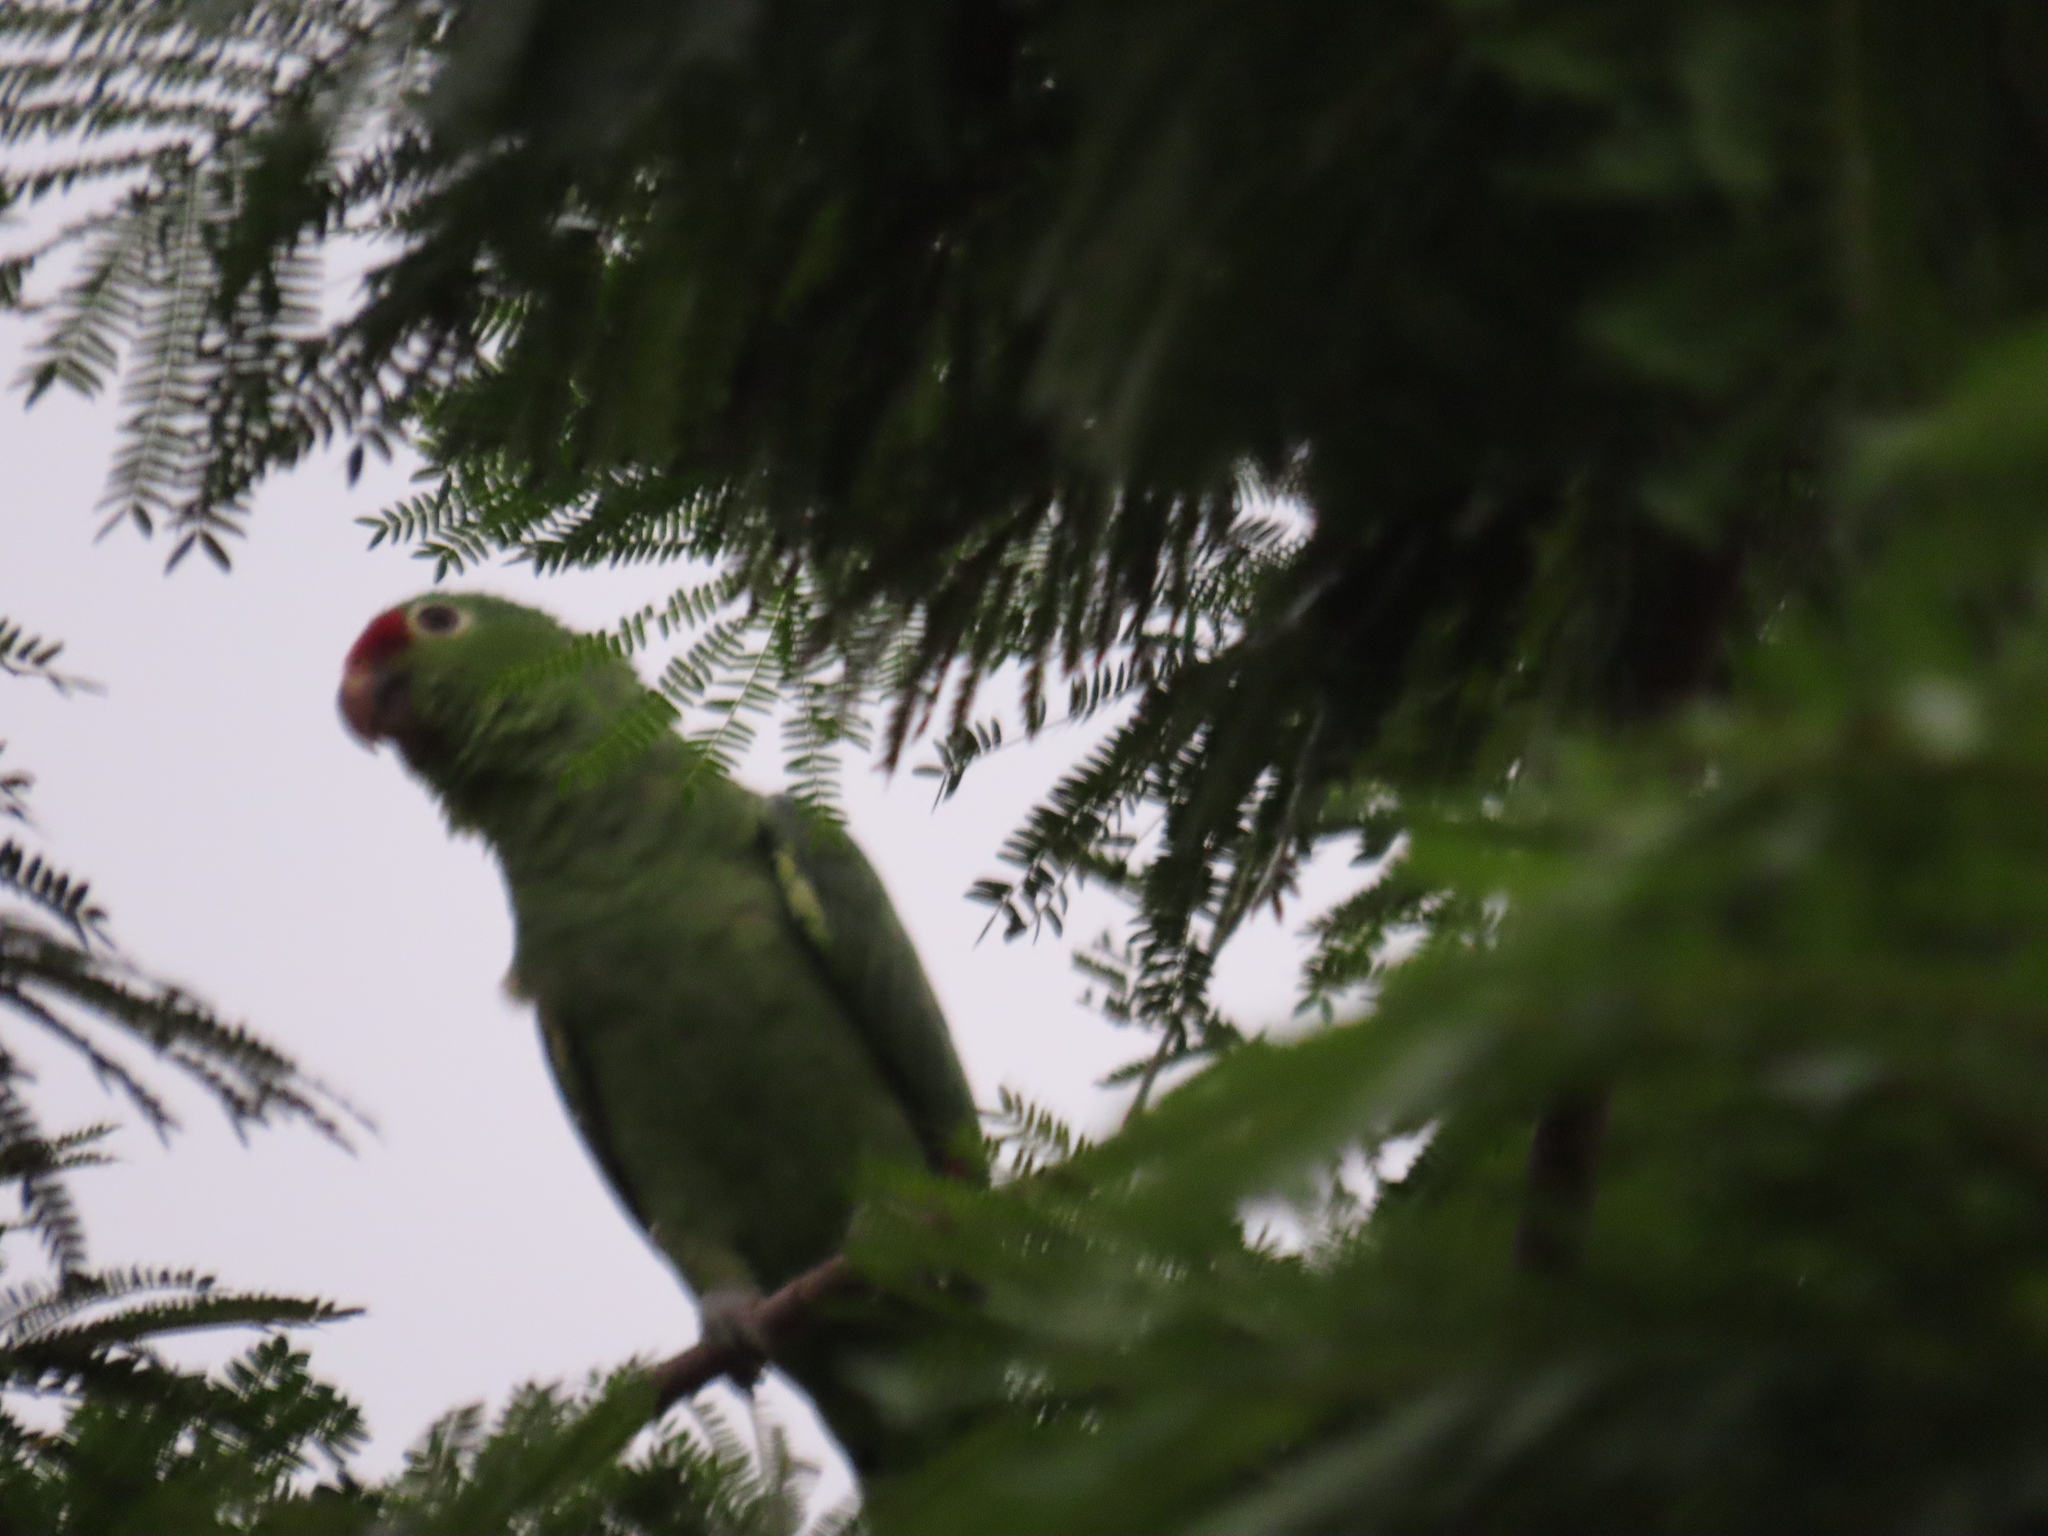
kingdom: Animalia
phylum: Chordata
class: Aves
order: Psittaciformes
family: Psittacidae
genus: Amazona
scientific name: Amazona autumnalis
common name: Red-lored amazon
